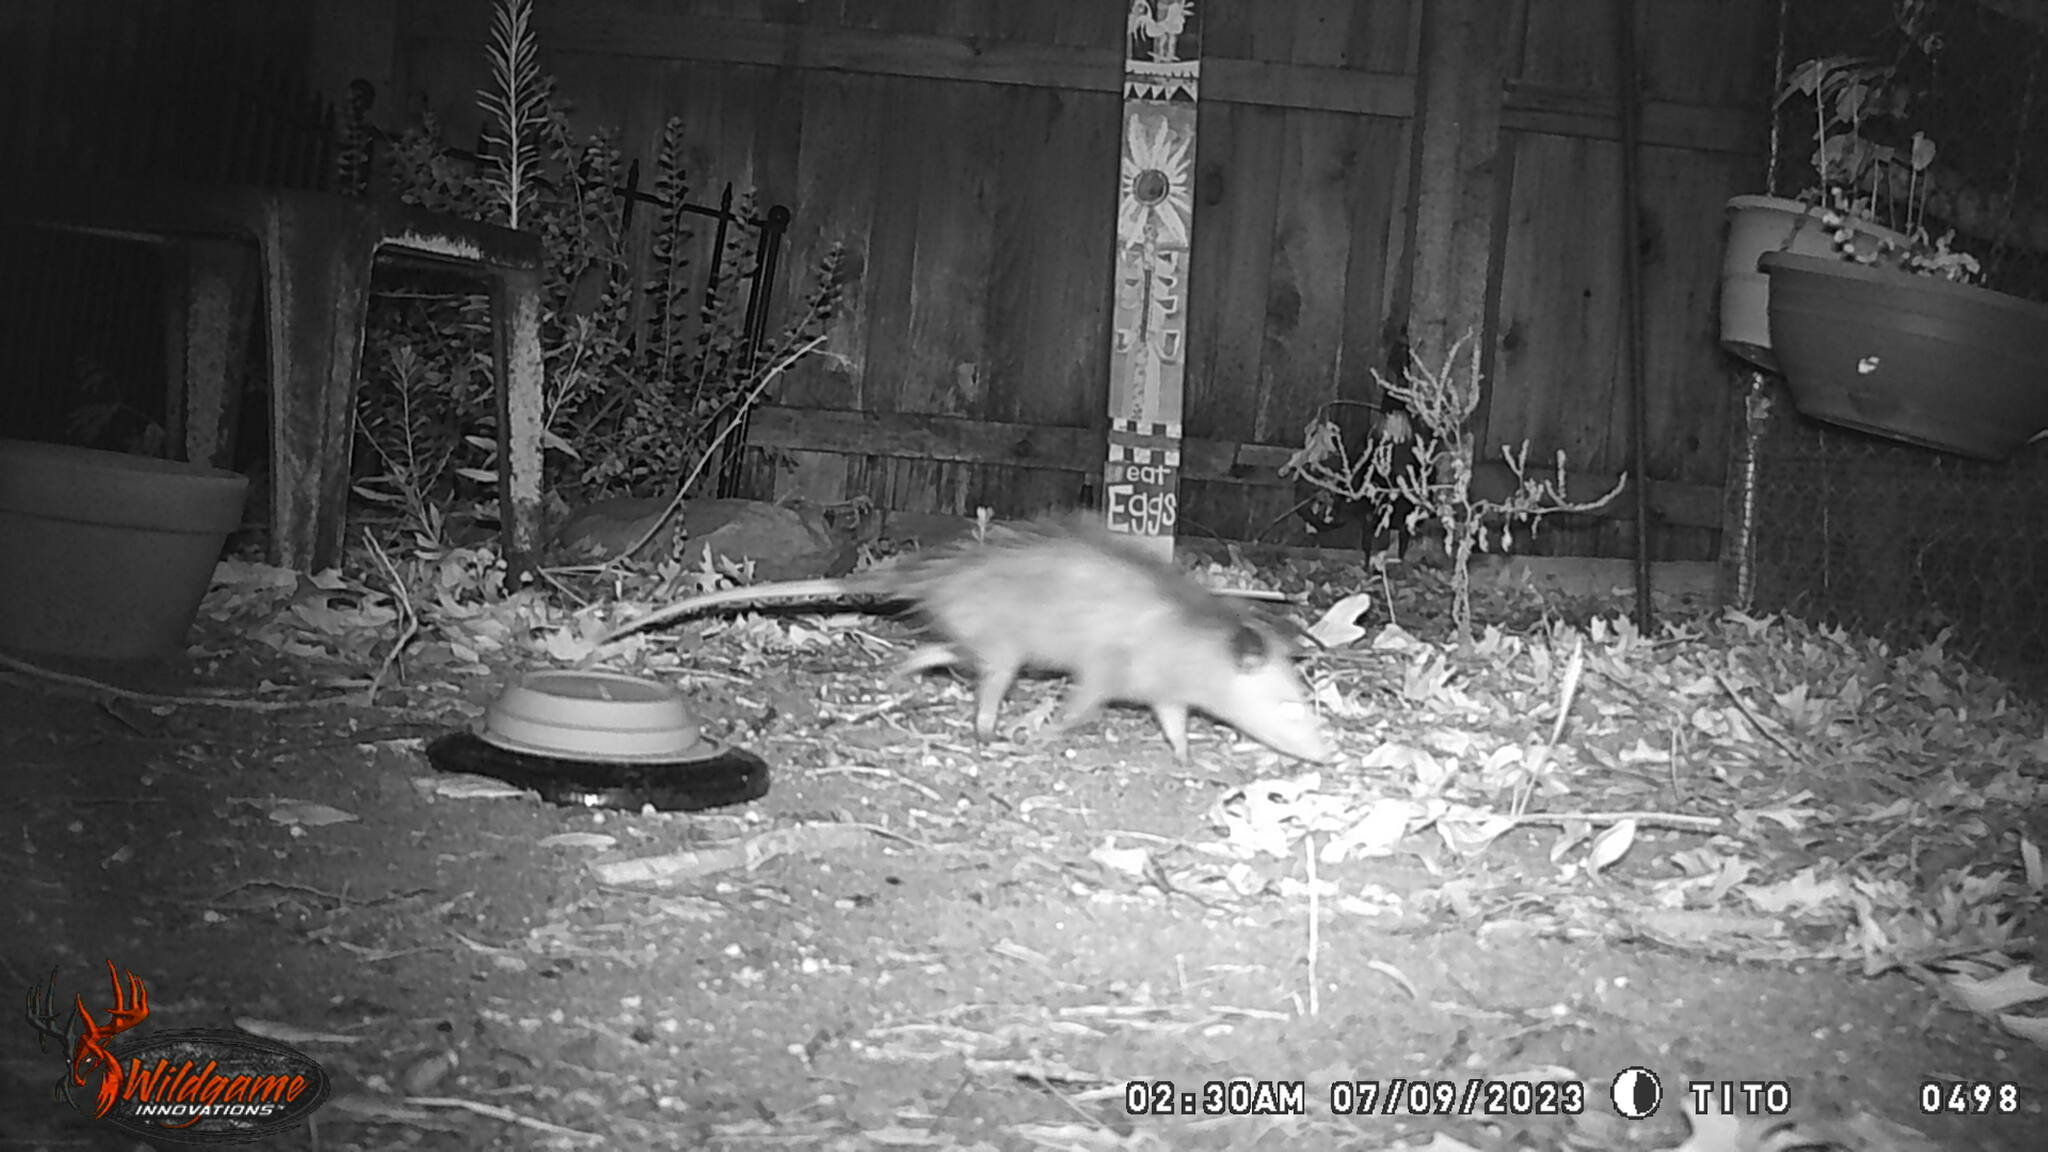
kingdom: Animalia
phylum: Chordata
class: Mammalia
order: Didelphimorphia
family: Didelphidae
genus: Didelphis
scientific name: Didelphis virginiana
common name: Virginia opossum
